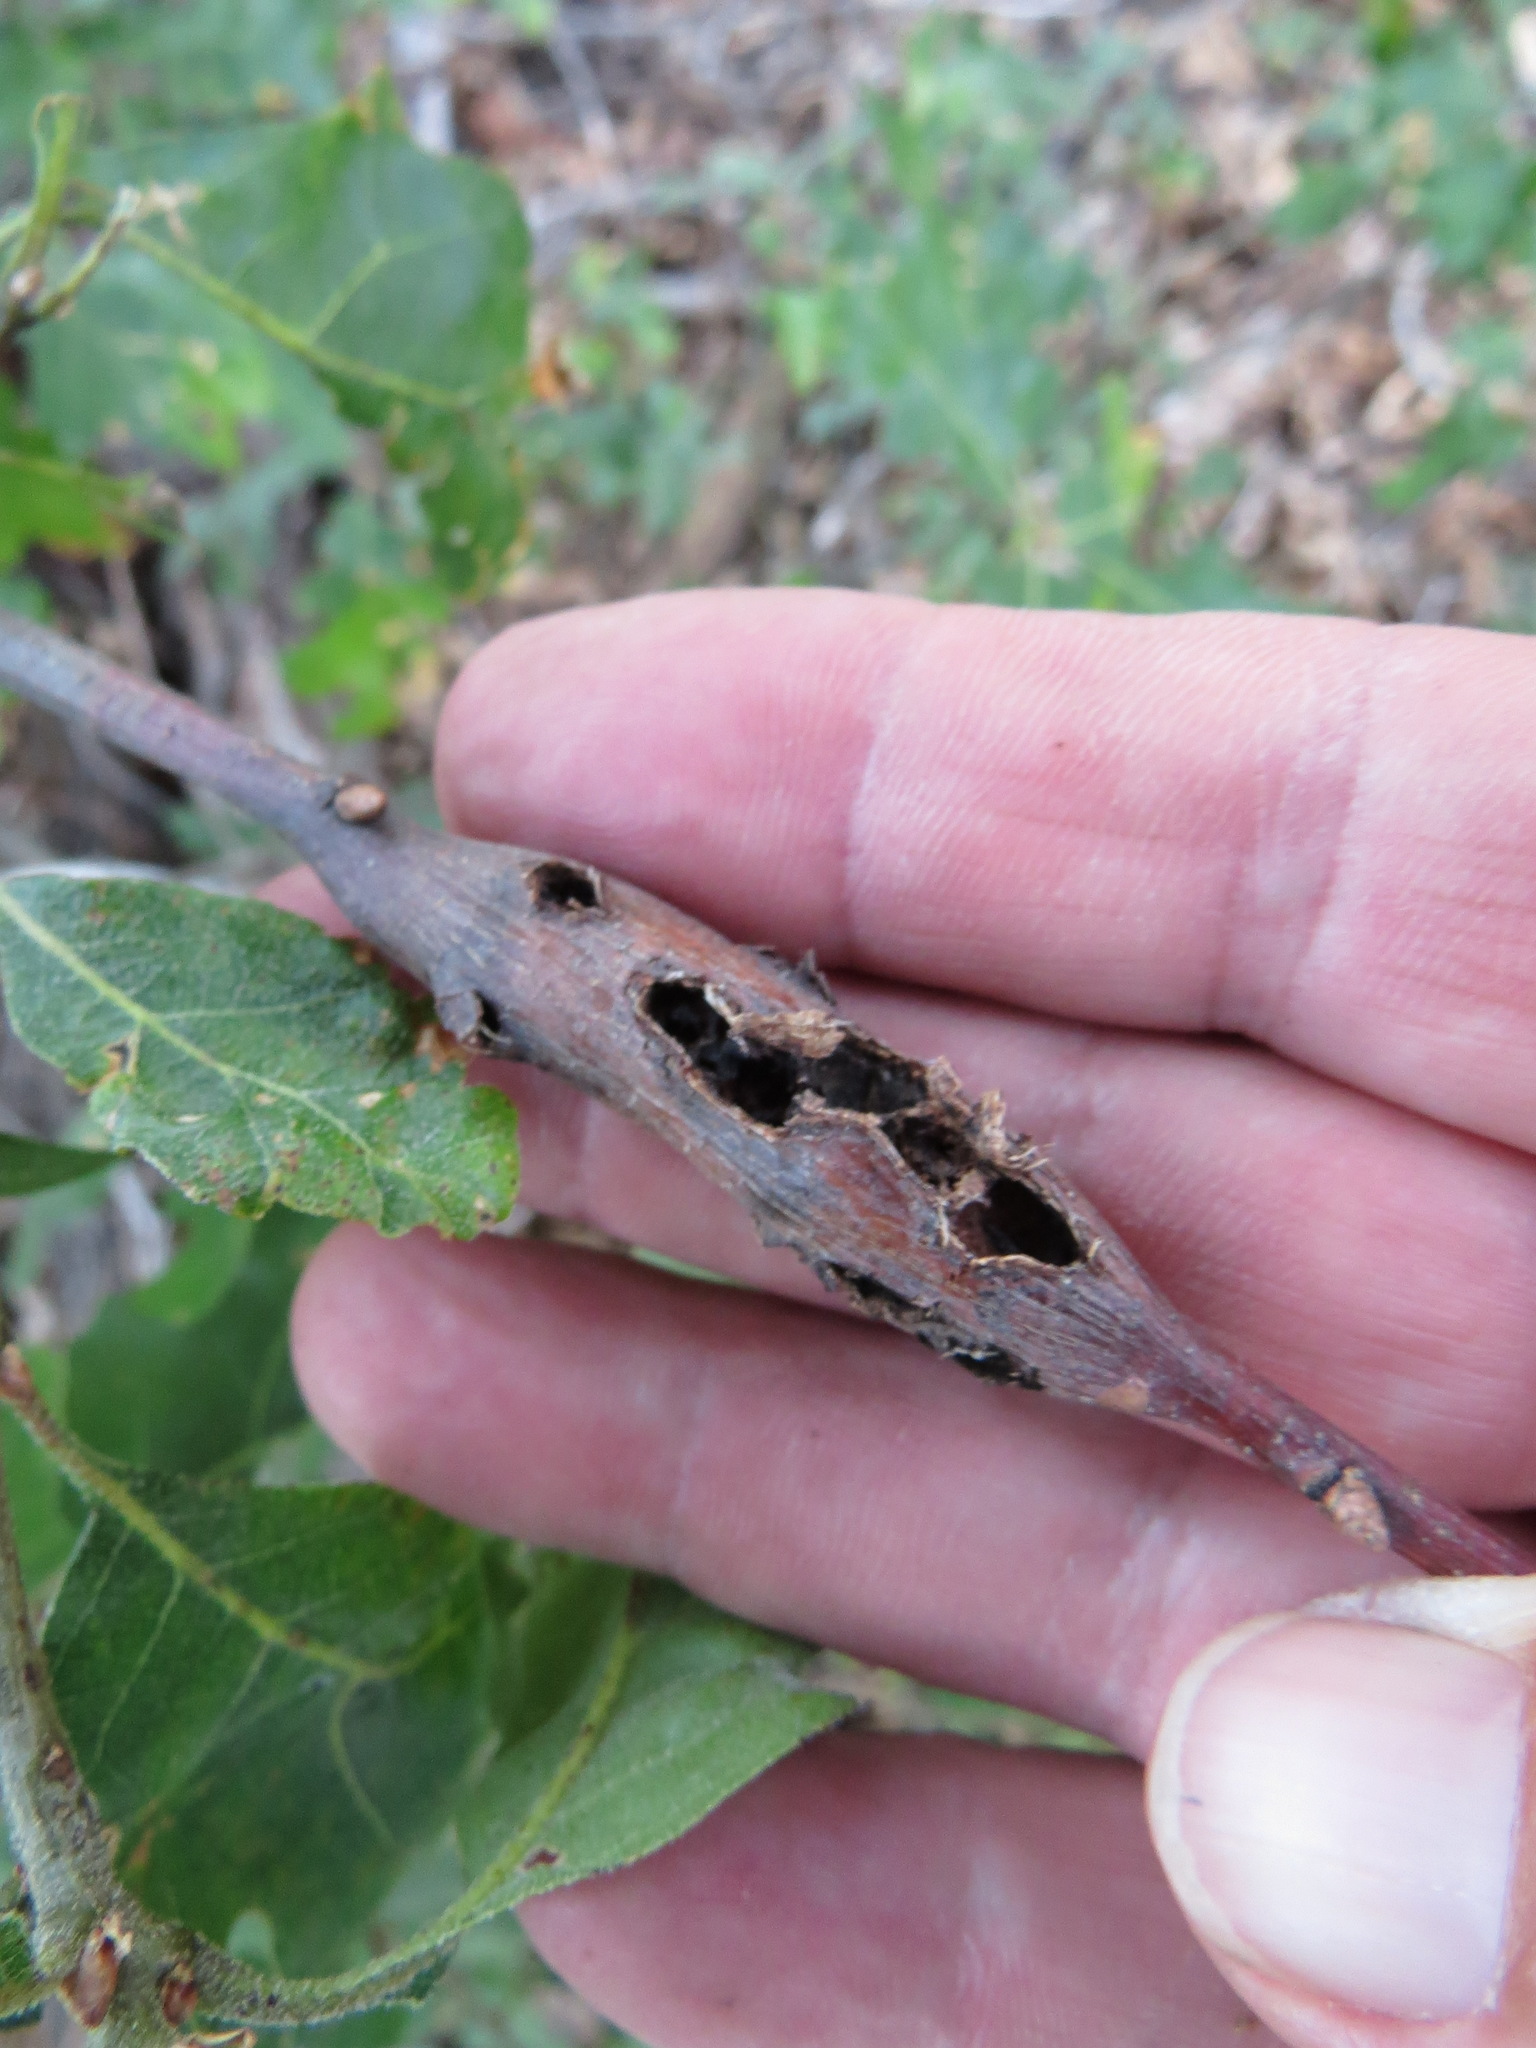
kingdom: Animalia
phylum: Arthropoda
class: Insecta
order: Hymenoptera
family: Cynipidae
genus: Callirhytis
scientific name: Callirhytis
